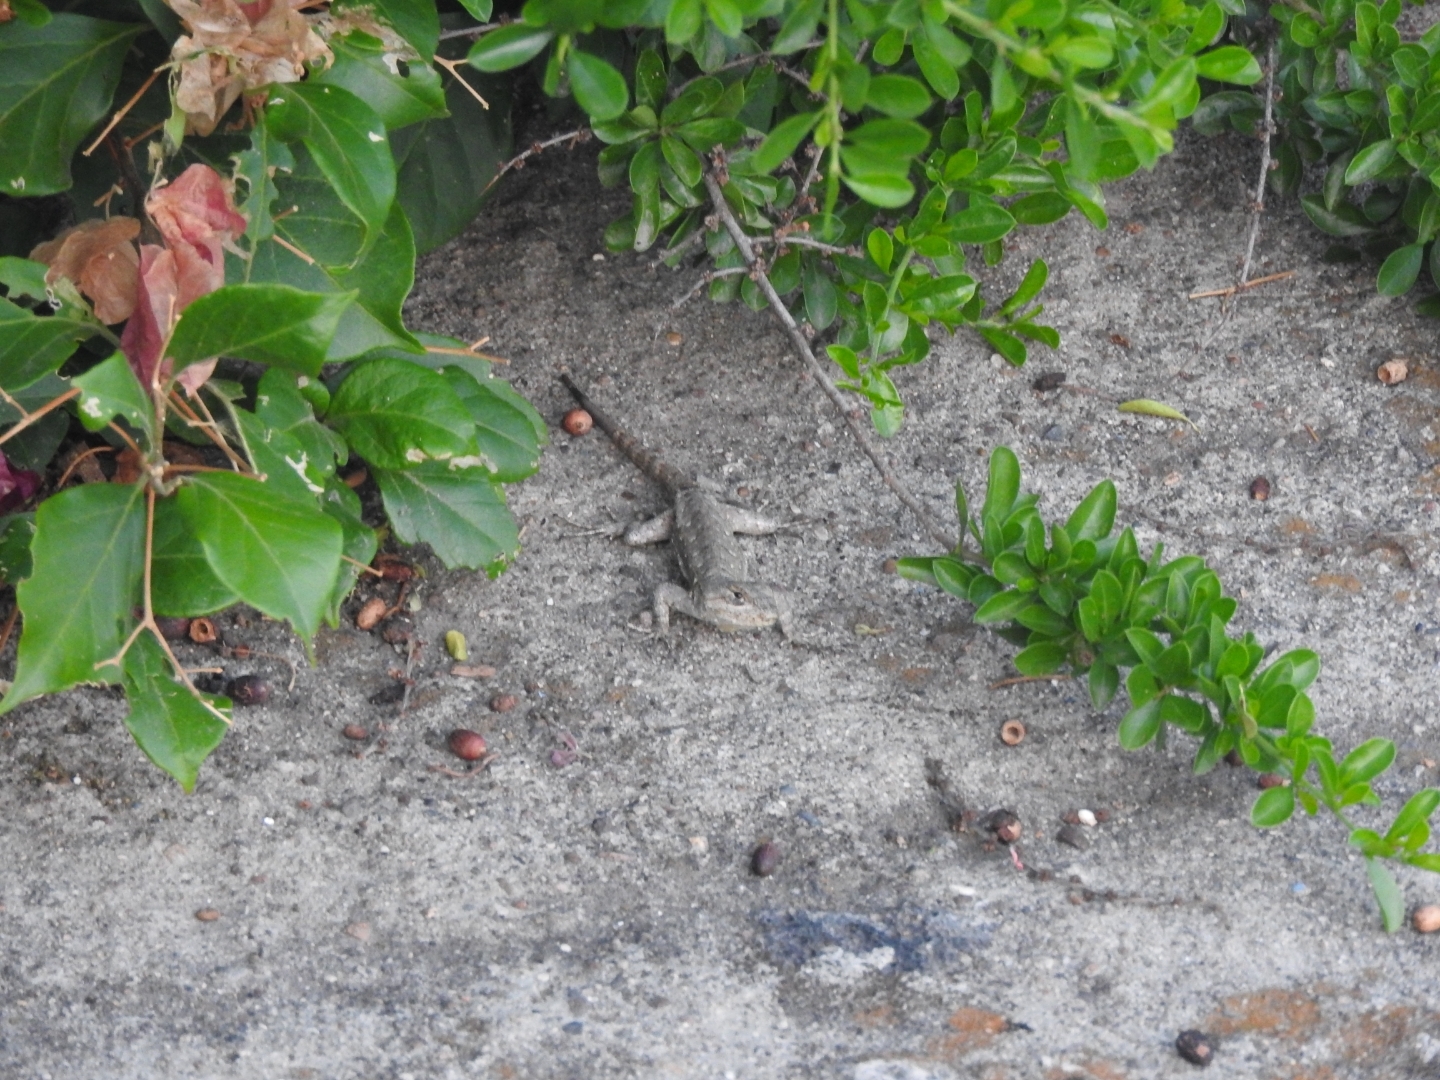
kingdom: Animalia
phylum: Chordata
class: Squamata
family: Phrynosomatidae
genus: Sceloporus
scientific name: Sceloporus grammicus
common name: Mesquite lizard
